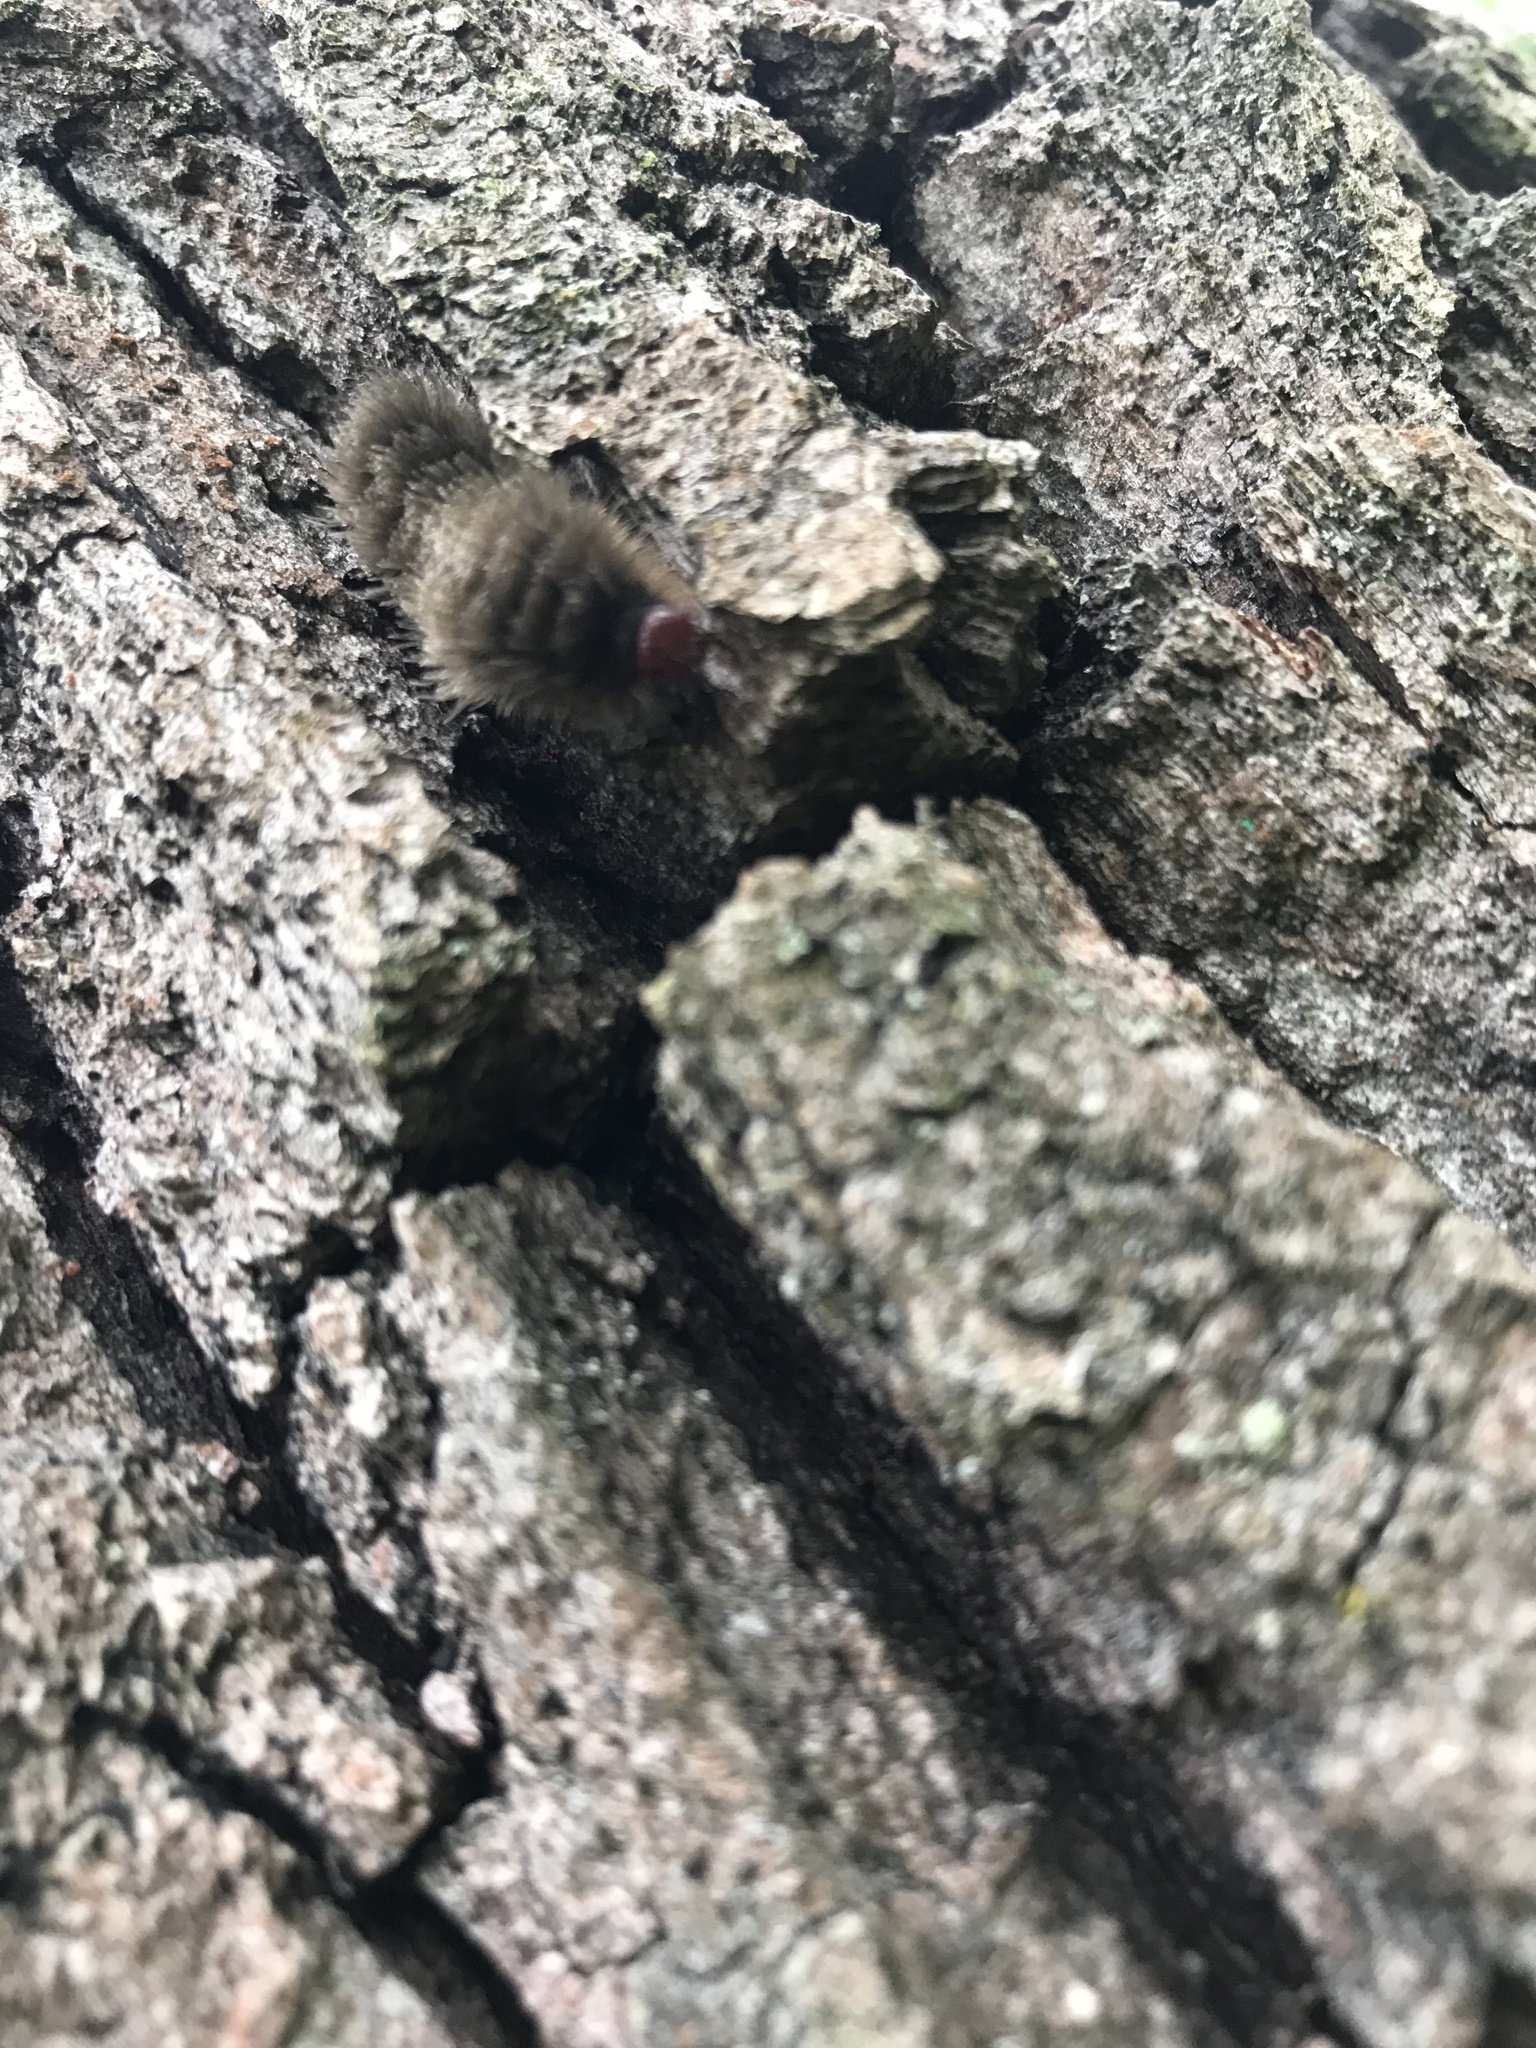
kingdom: Animalia
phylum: Arthropoda
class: Insecta
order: Lepidoptera
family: Erebidae
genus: Amata
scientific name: Amata phegea
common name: Nine-spotted
